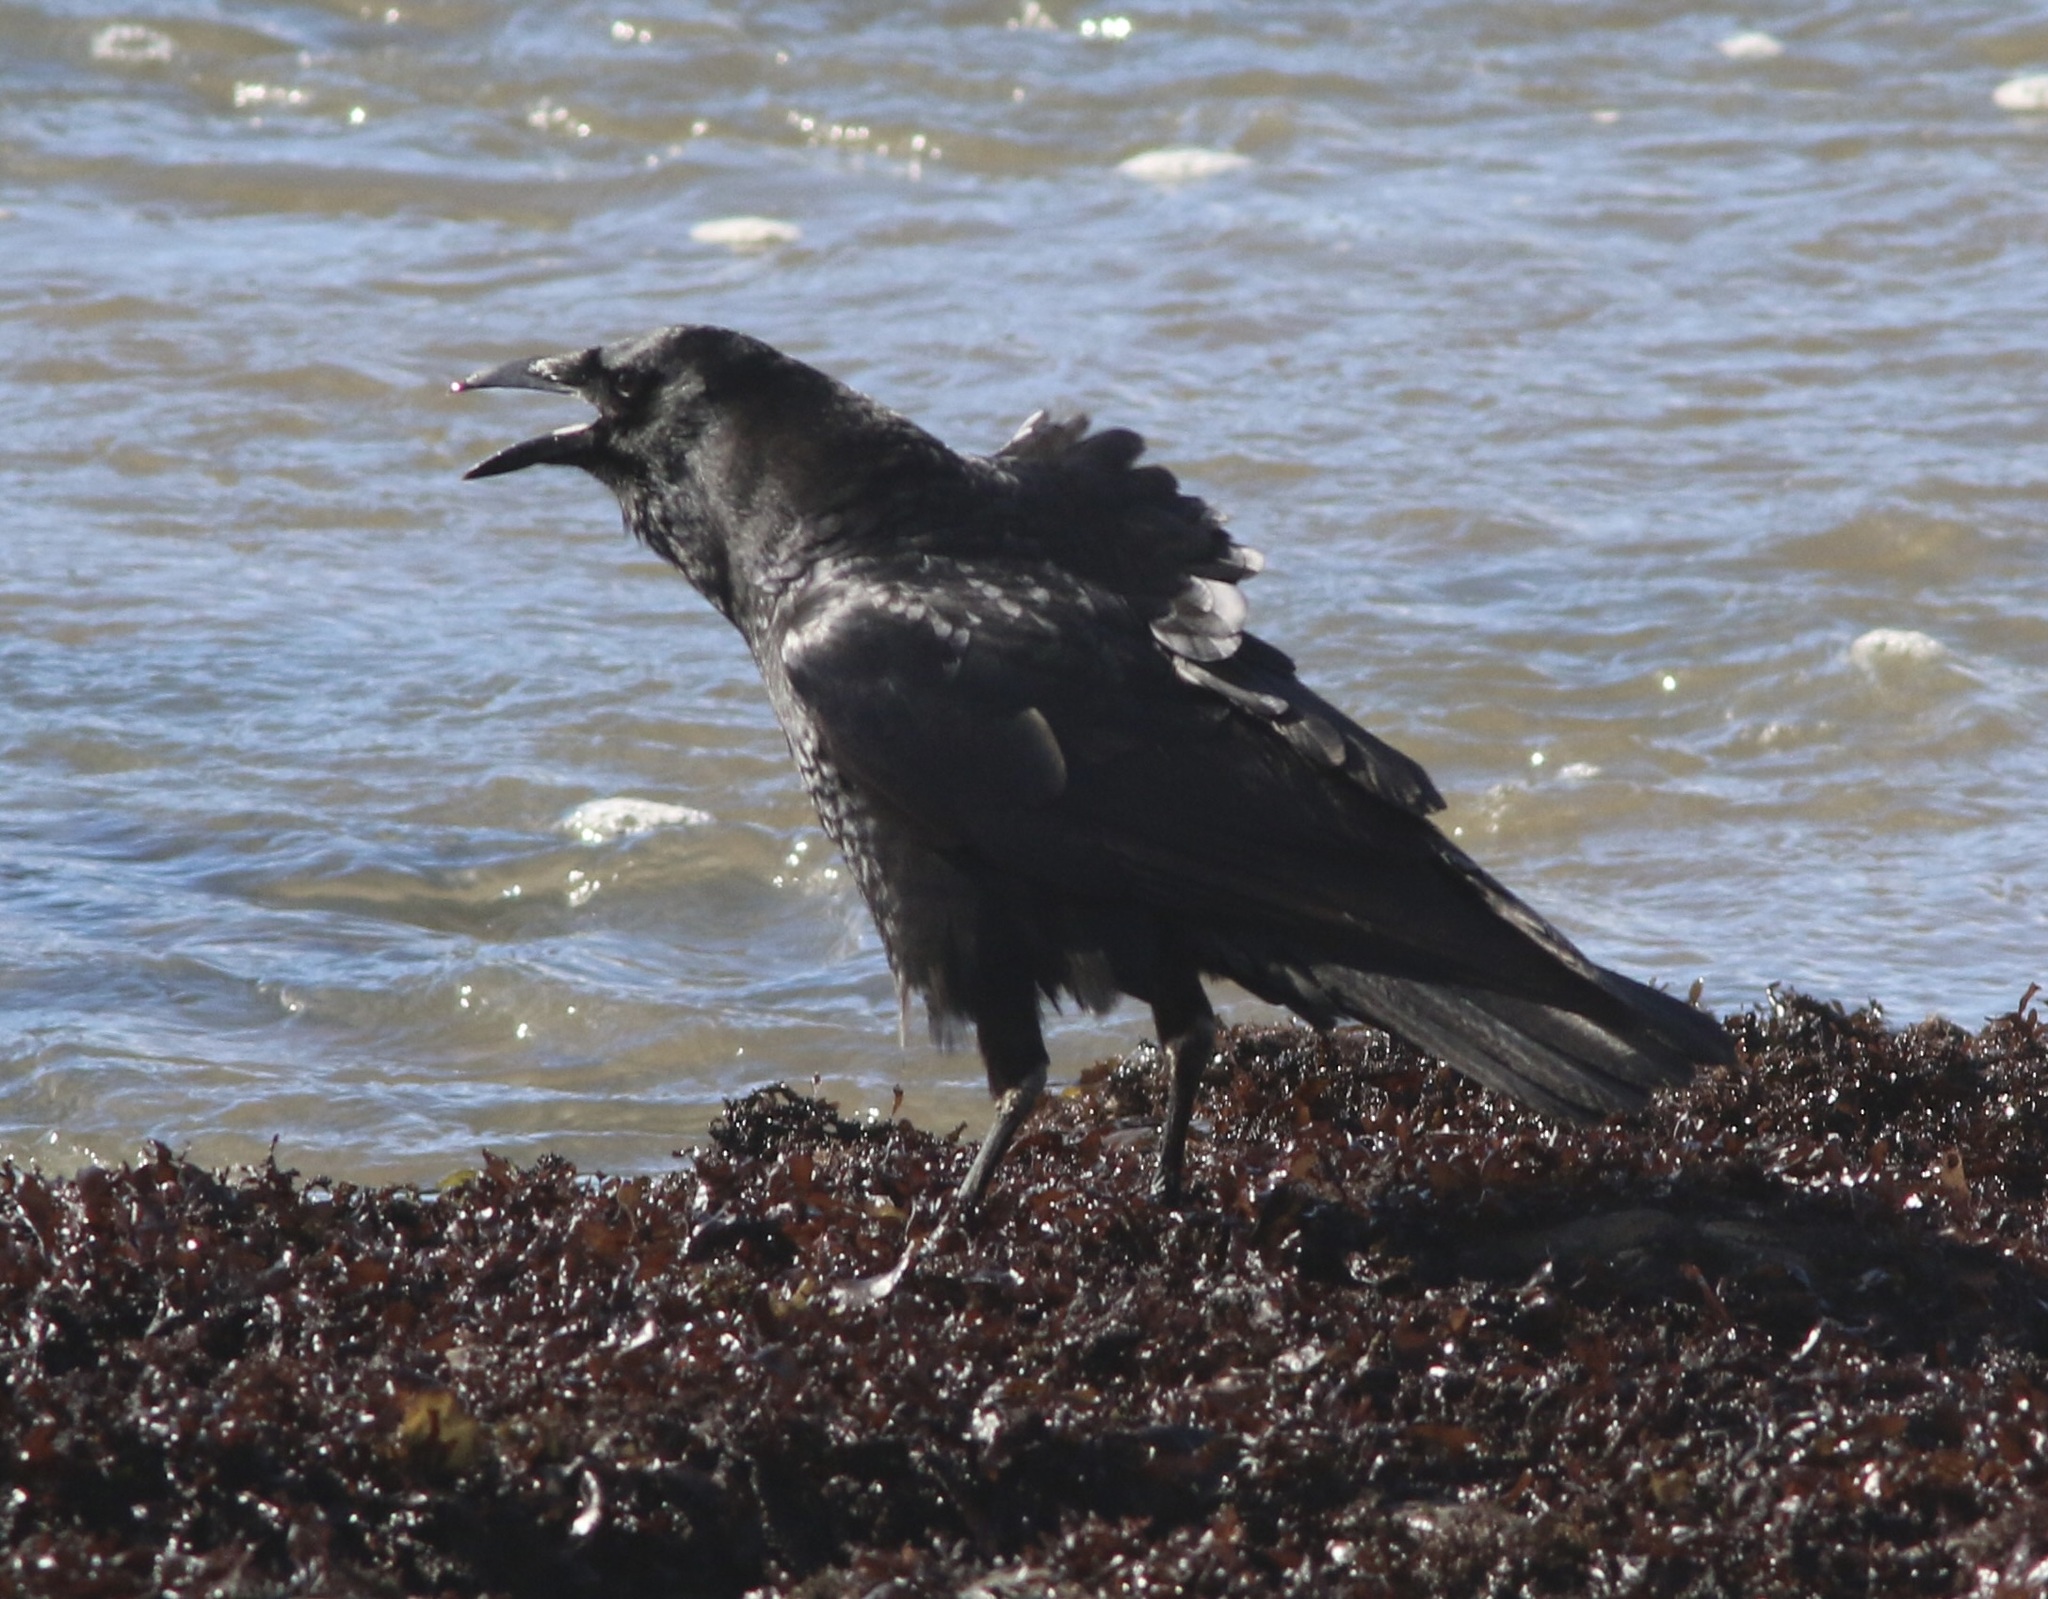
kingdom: Animalia
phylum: Chordata
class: Aves
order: Passeriformes
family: Corvidae
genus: Corvus
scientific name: Corvus brachyrhynchos
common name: American crow
